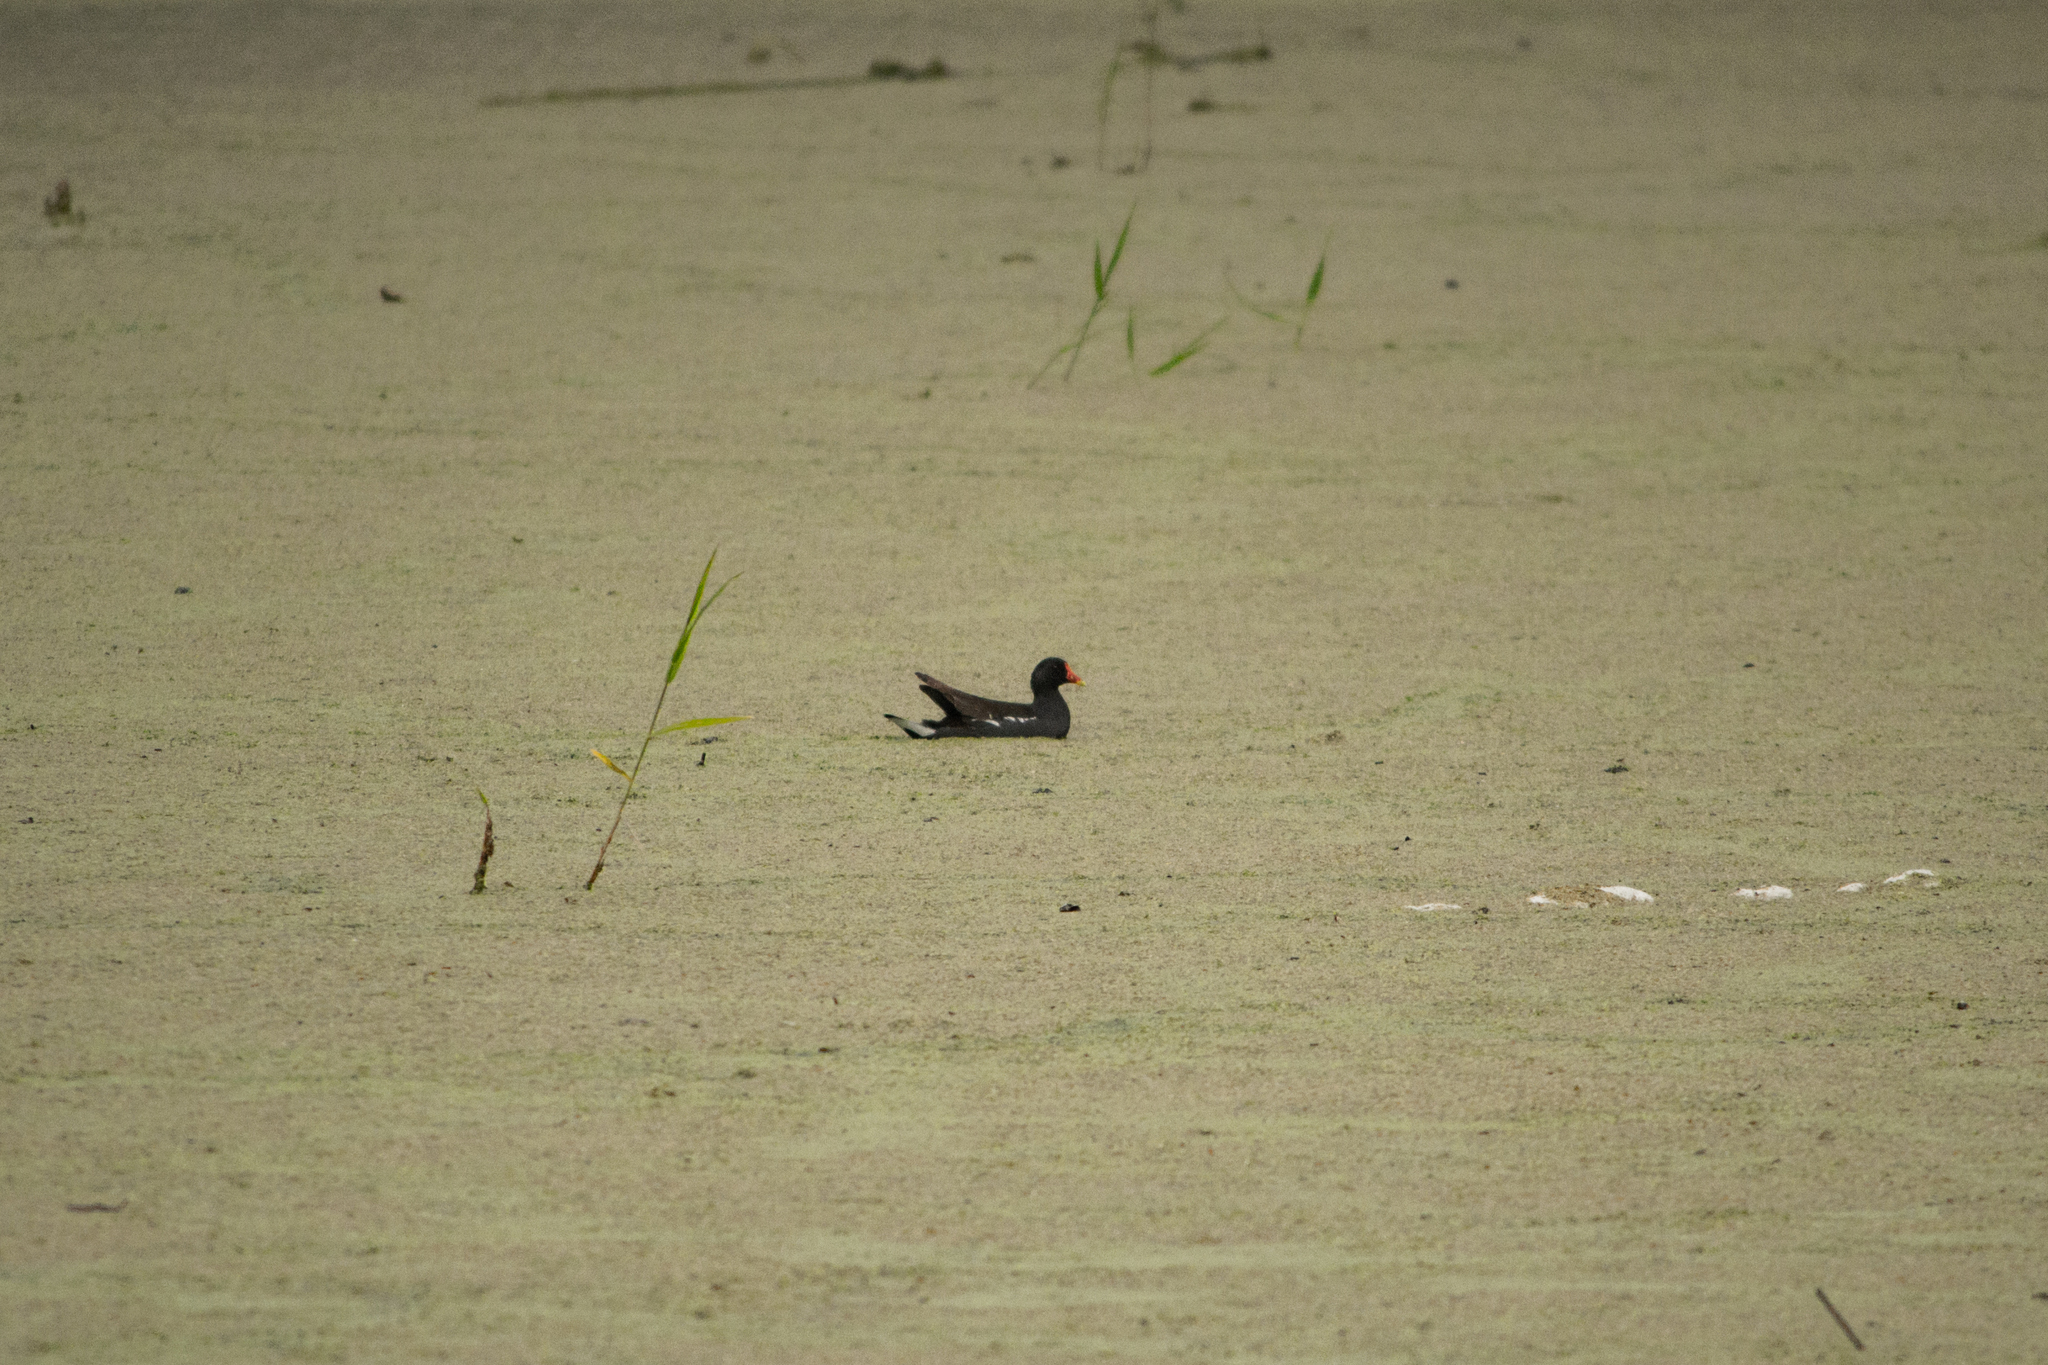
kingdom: Animalia
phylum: Chordata
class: Aves
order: Gruiformes
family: Rallidae
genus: Gallinula
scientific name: Gallinula chloropus
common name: Common moorhen
